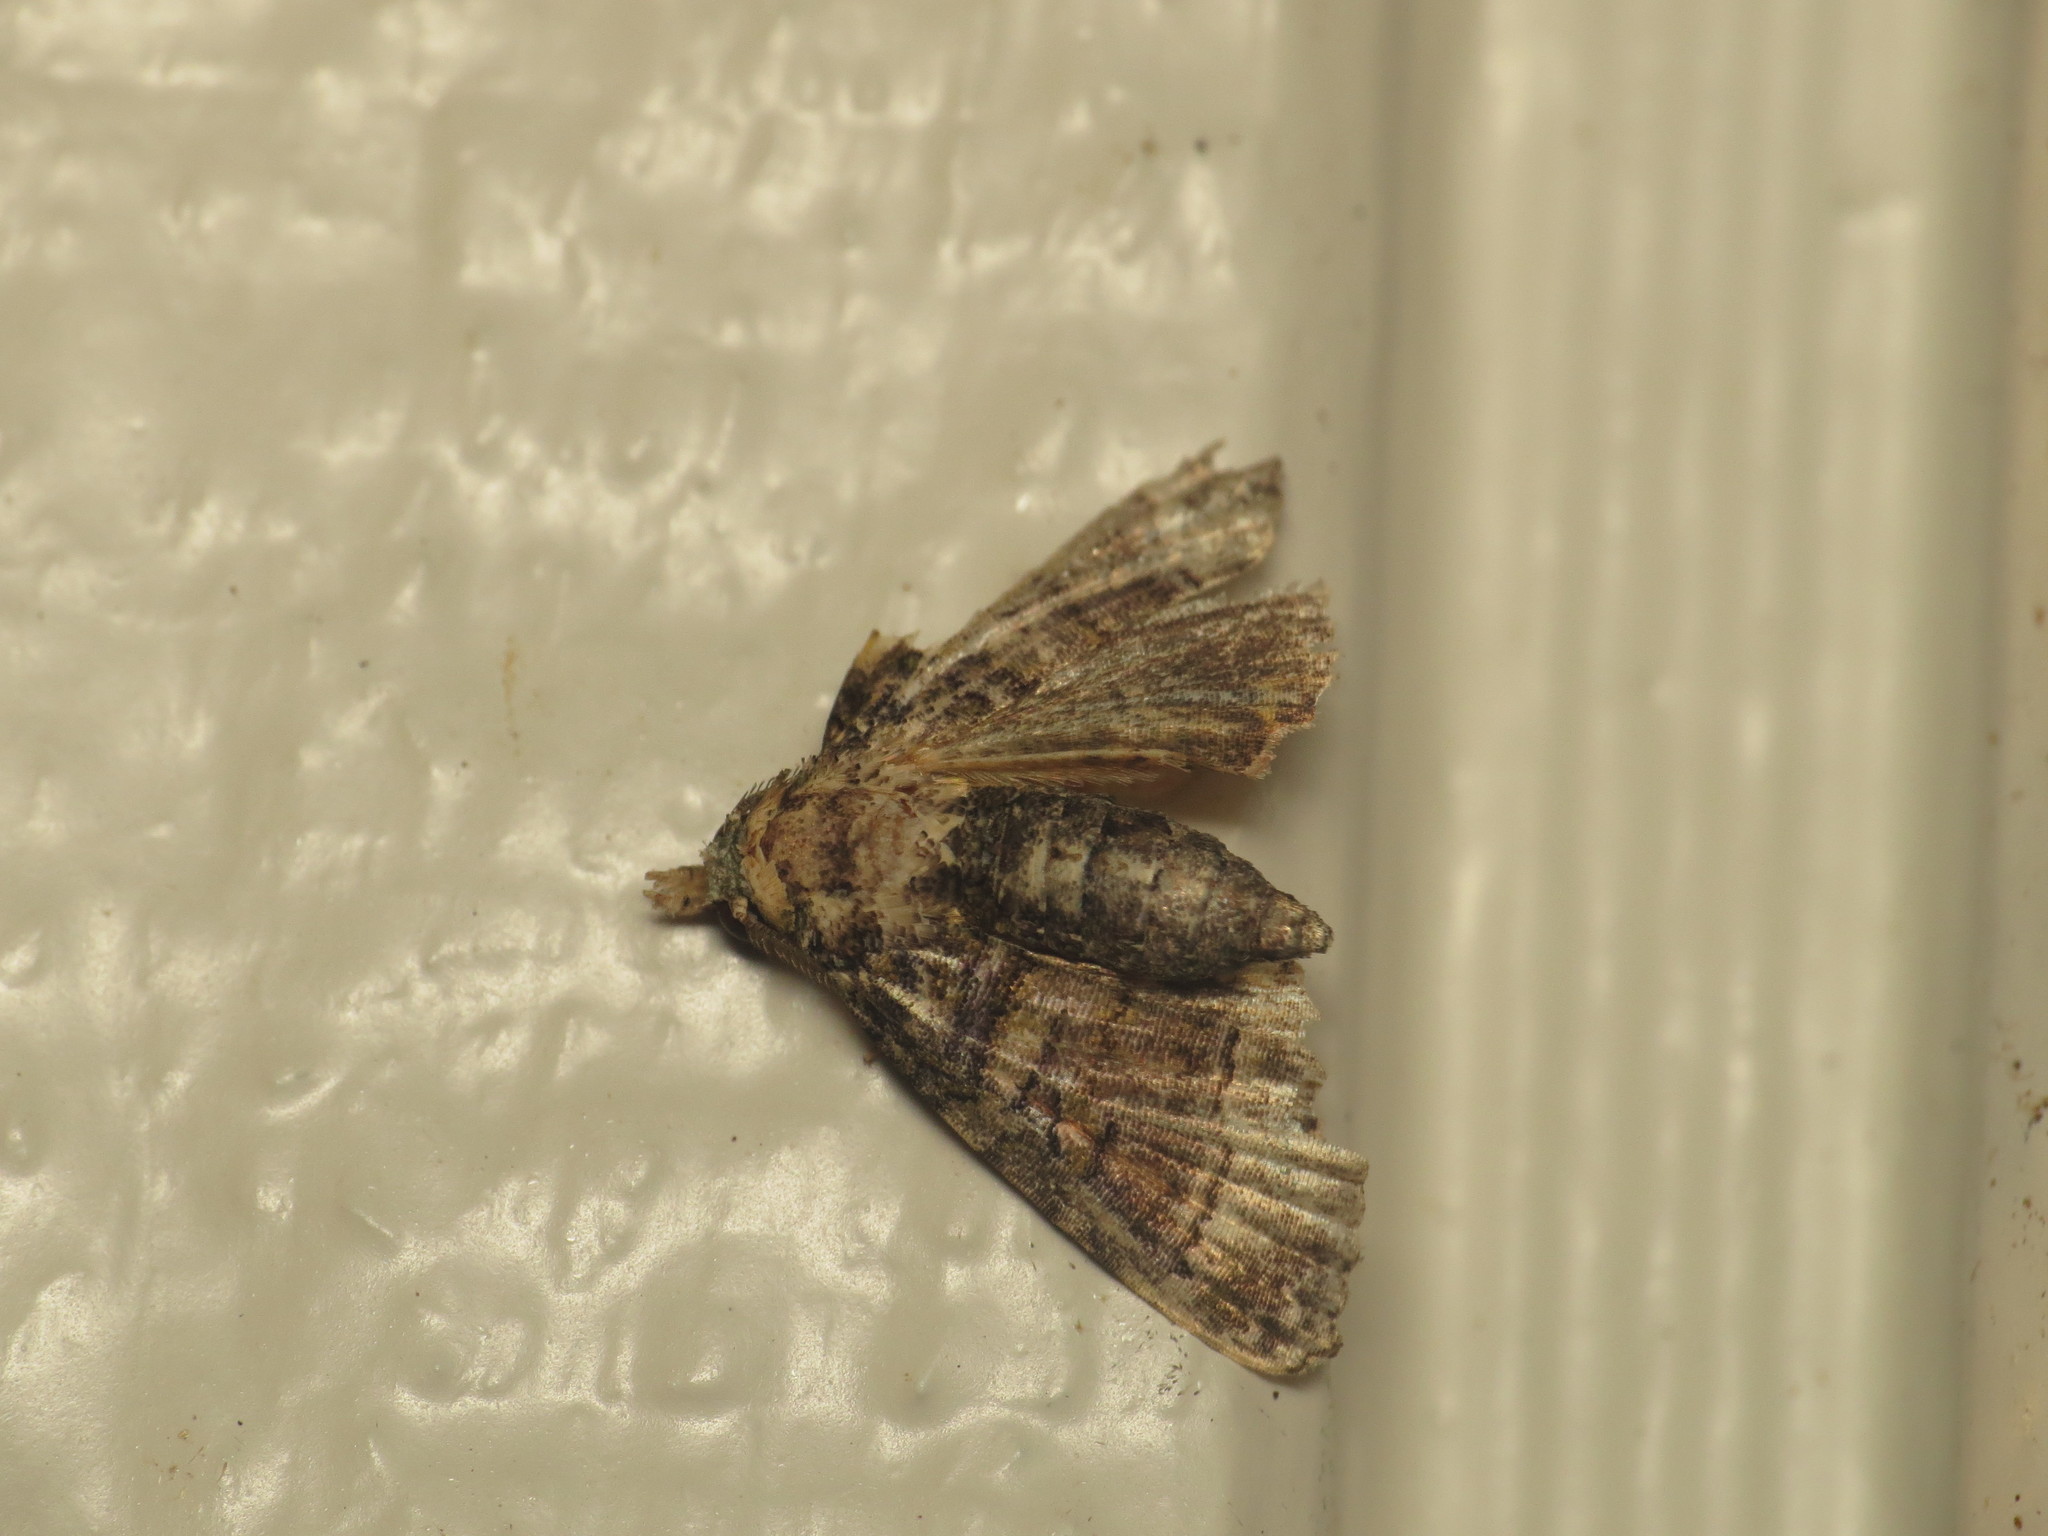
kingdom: Animalia
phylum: Arthropoda
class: Insecta
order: Lepidoptera
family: Euteliidae
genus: Chlumetia
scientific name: Chlumetia transversa
